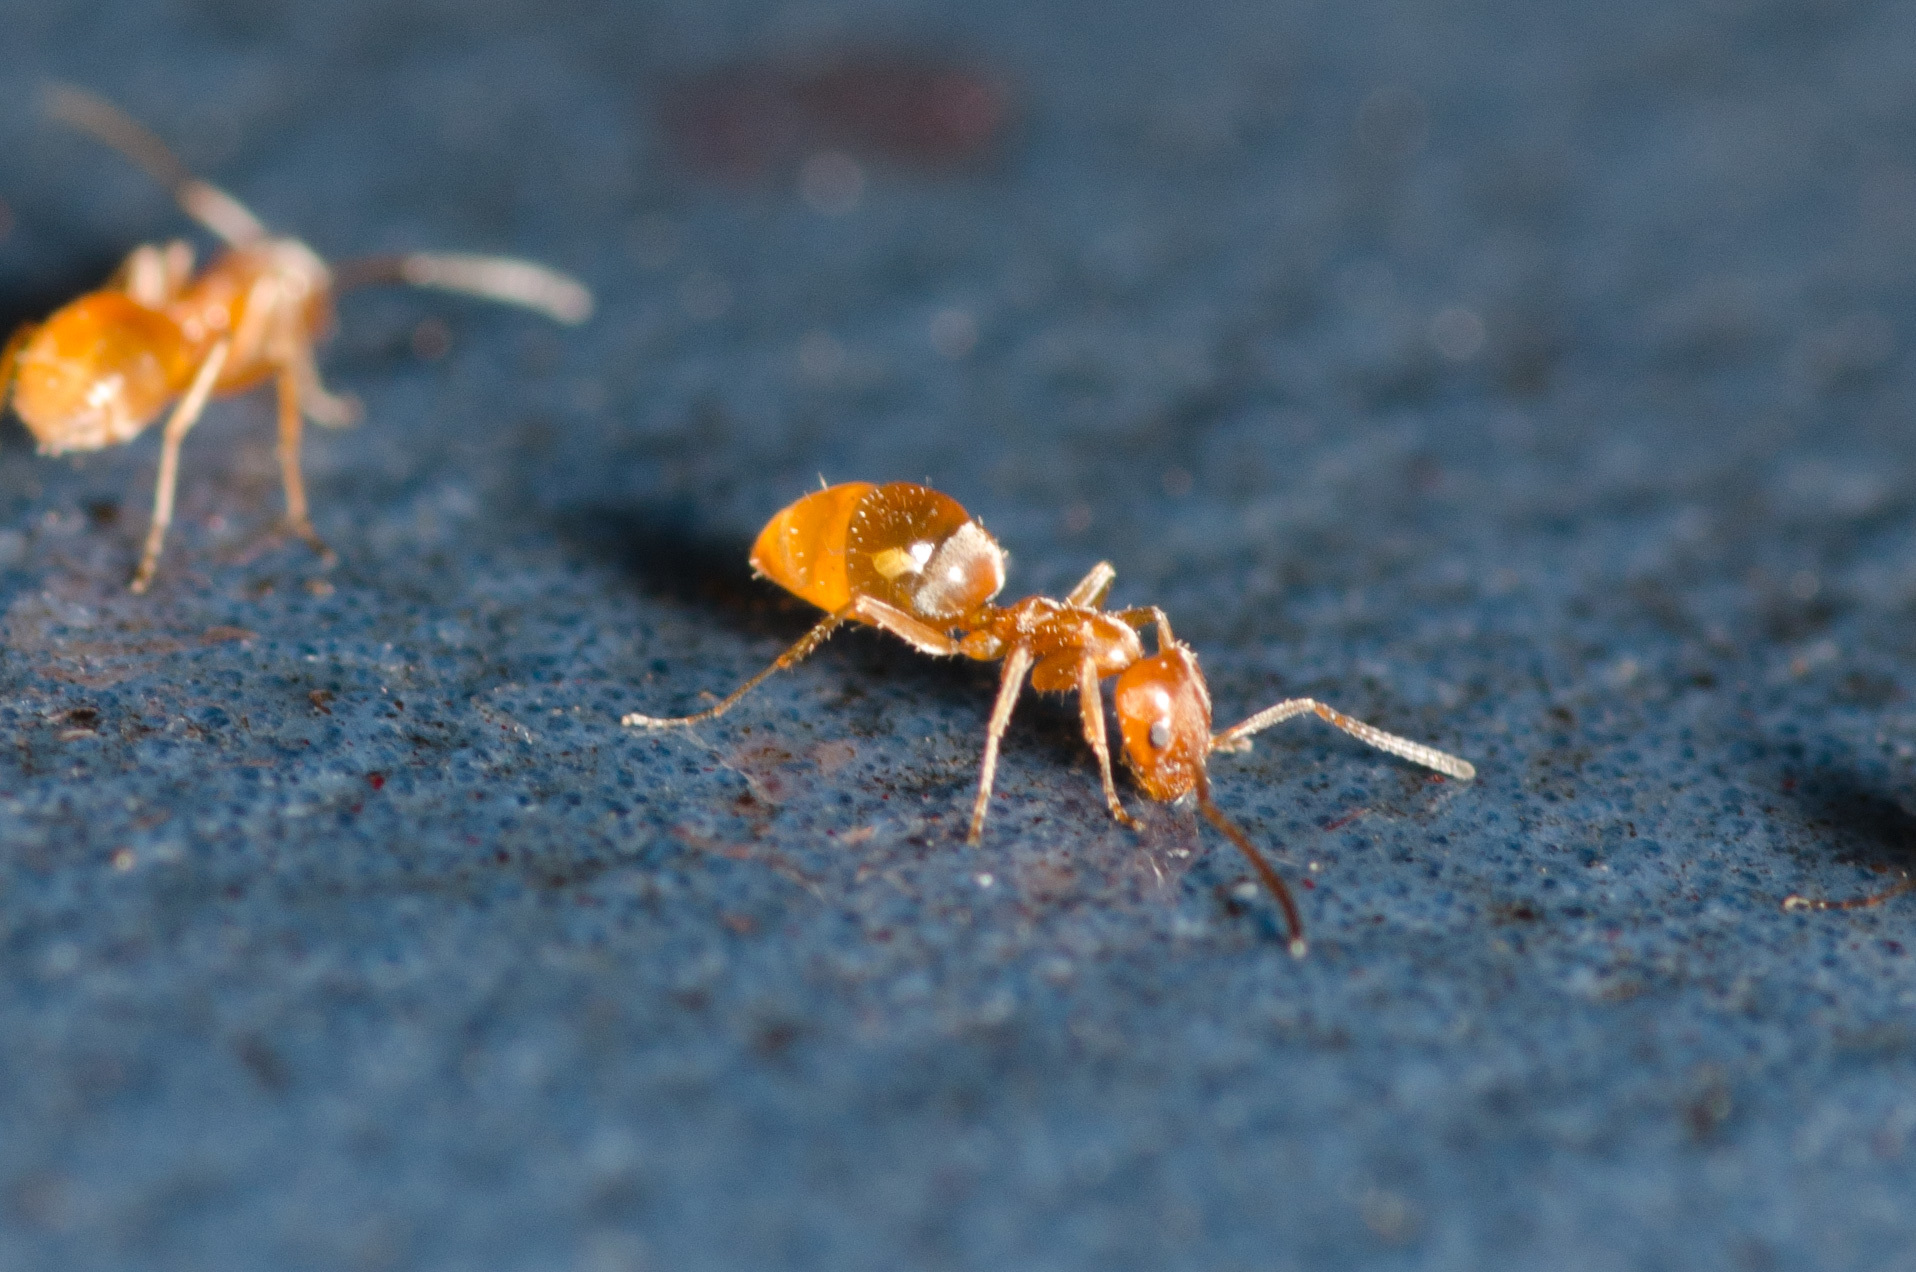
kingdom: Animalia
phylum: Arthropoda
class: Insecta
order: Hymenoptera
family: Formicidae
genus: Forelius
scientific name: Forelius mccooki
